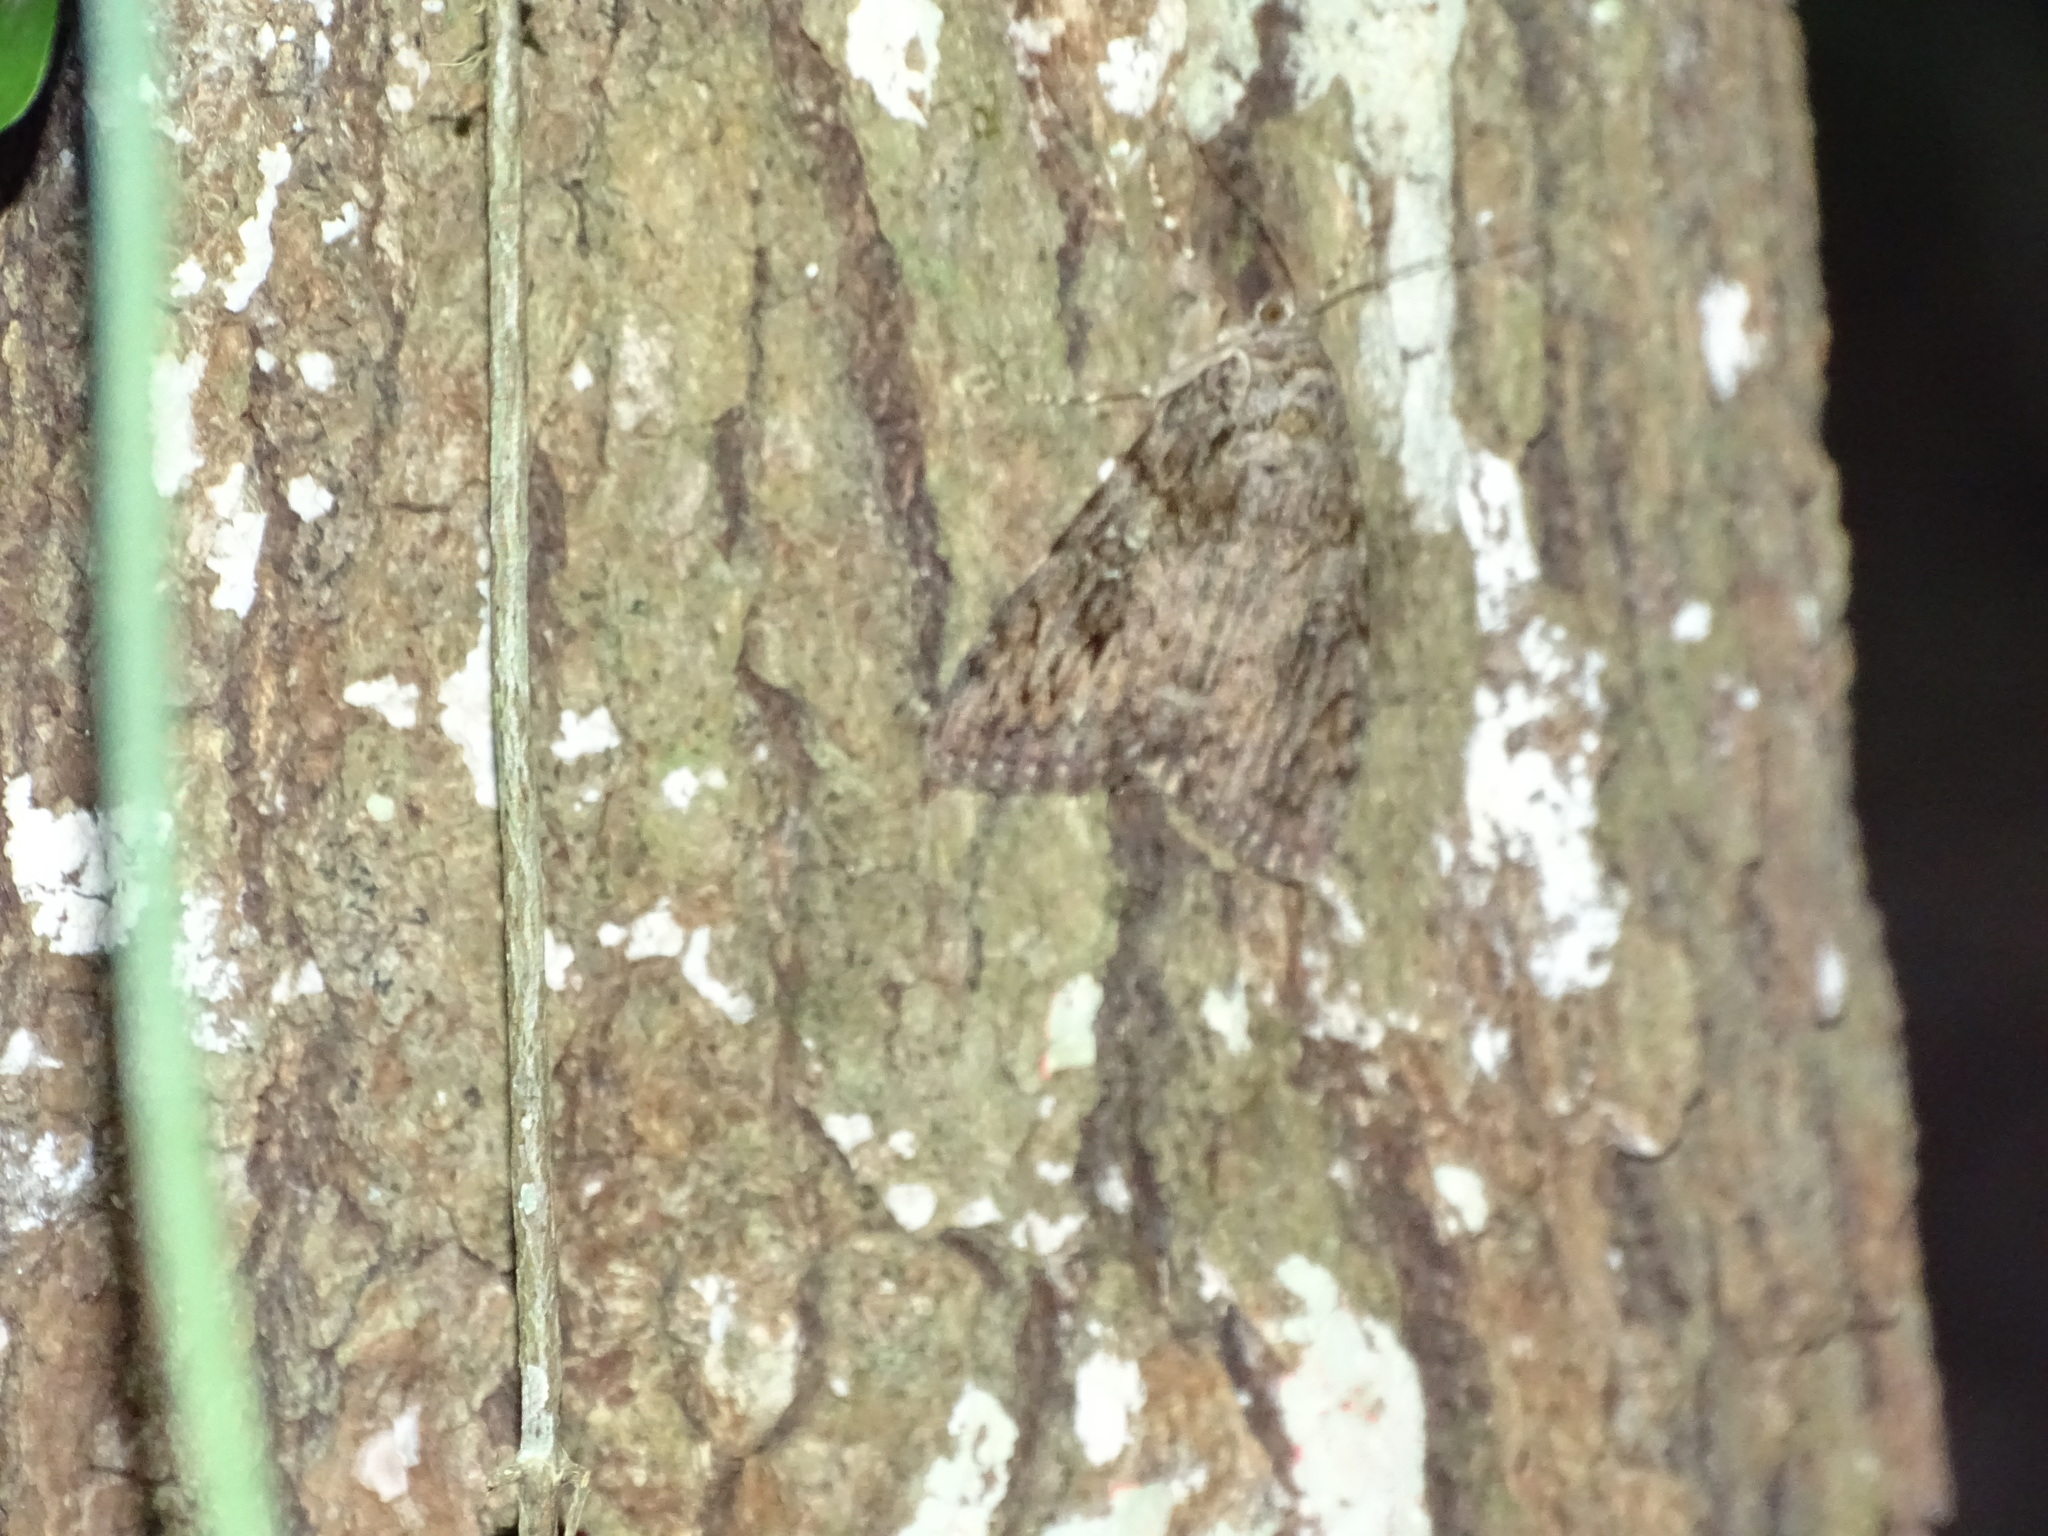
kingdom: Animalia
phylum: Arthropoda
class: Insecta
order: Lepidoptera
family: Erebidae
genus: Catocala
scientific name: Catocala ilia
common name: Ilia underwing
